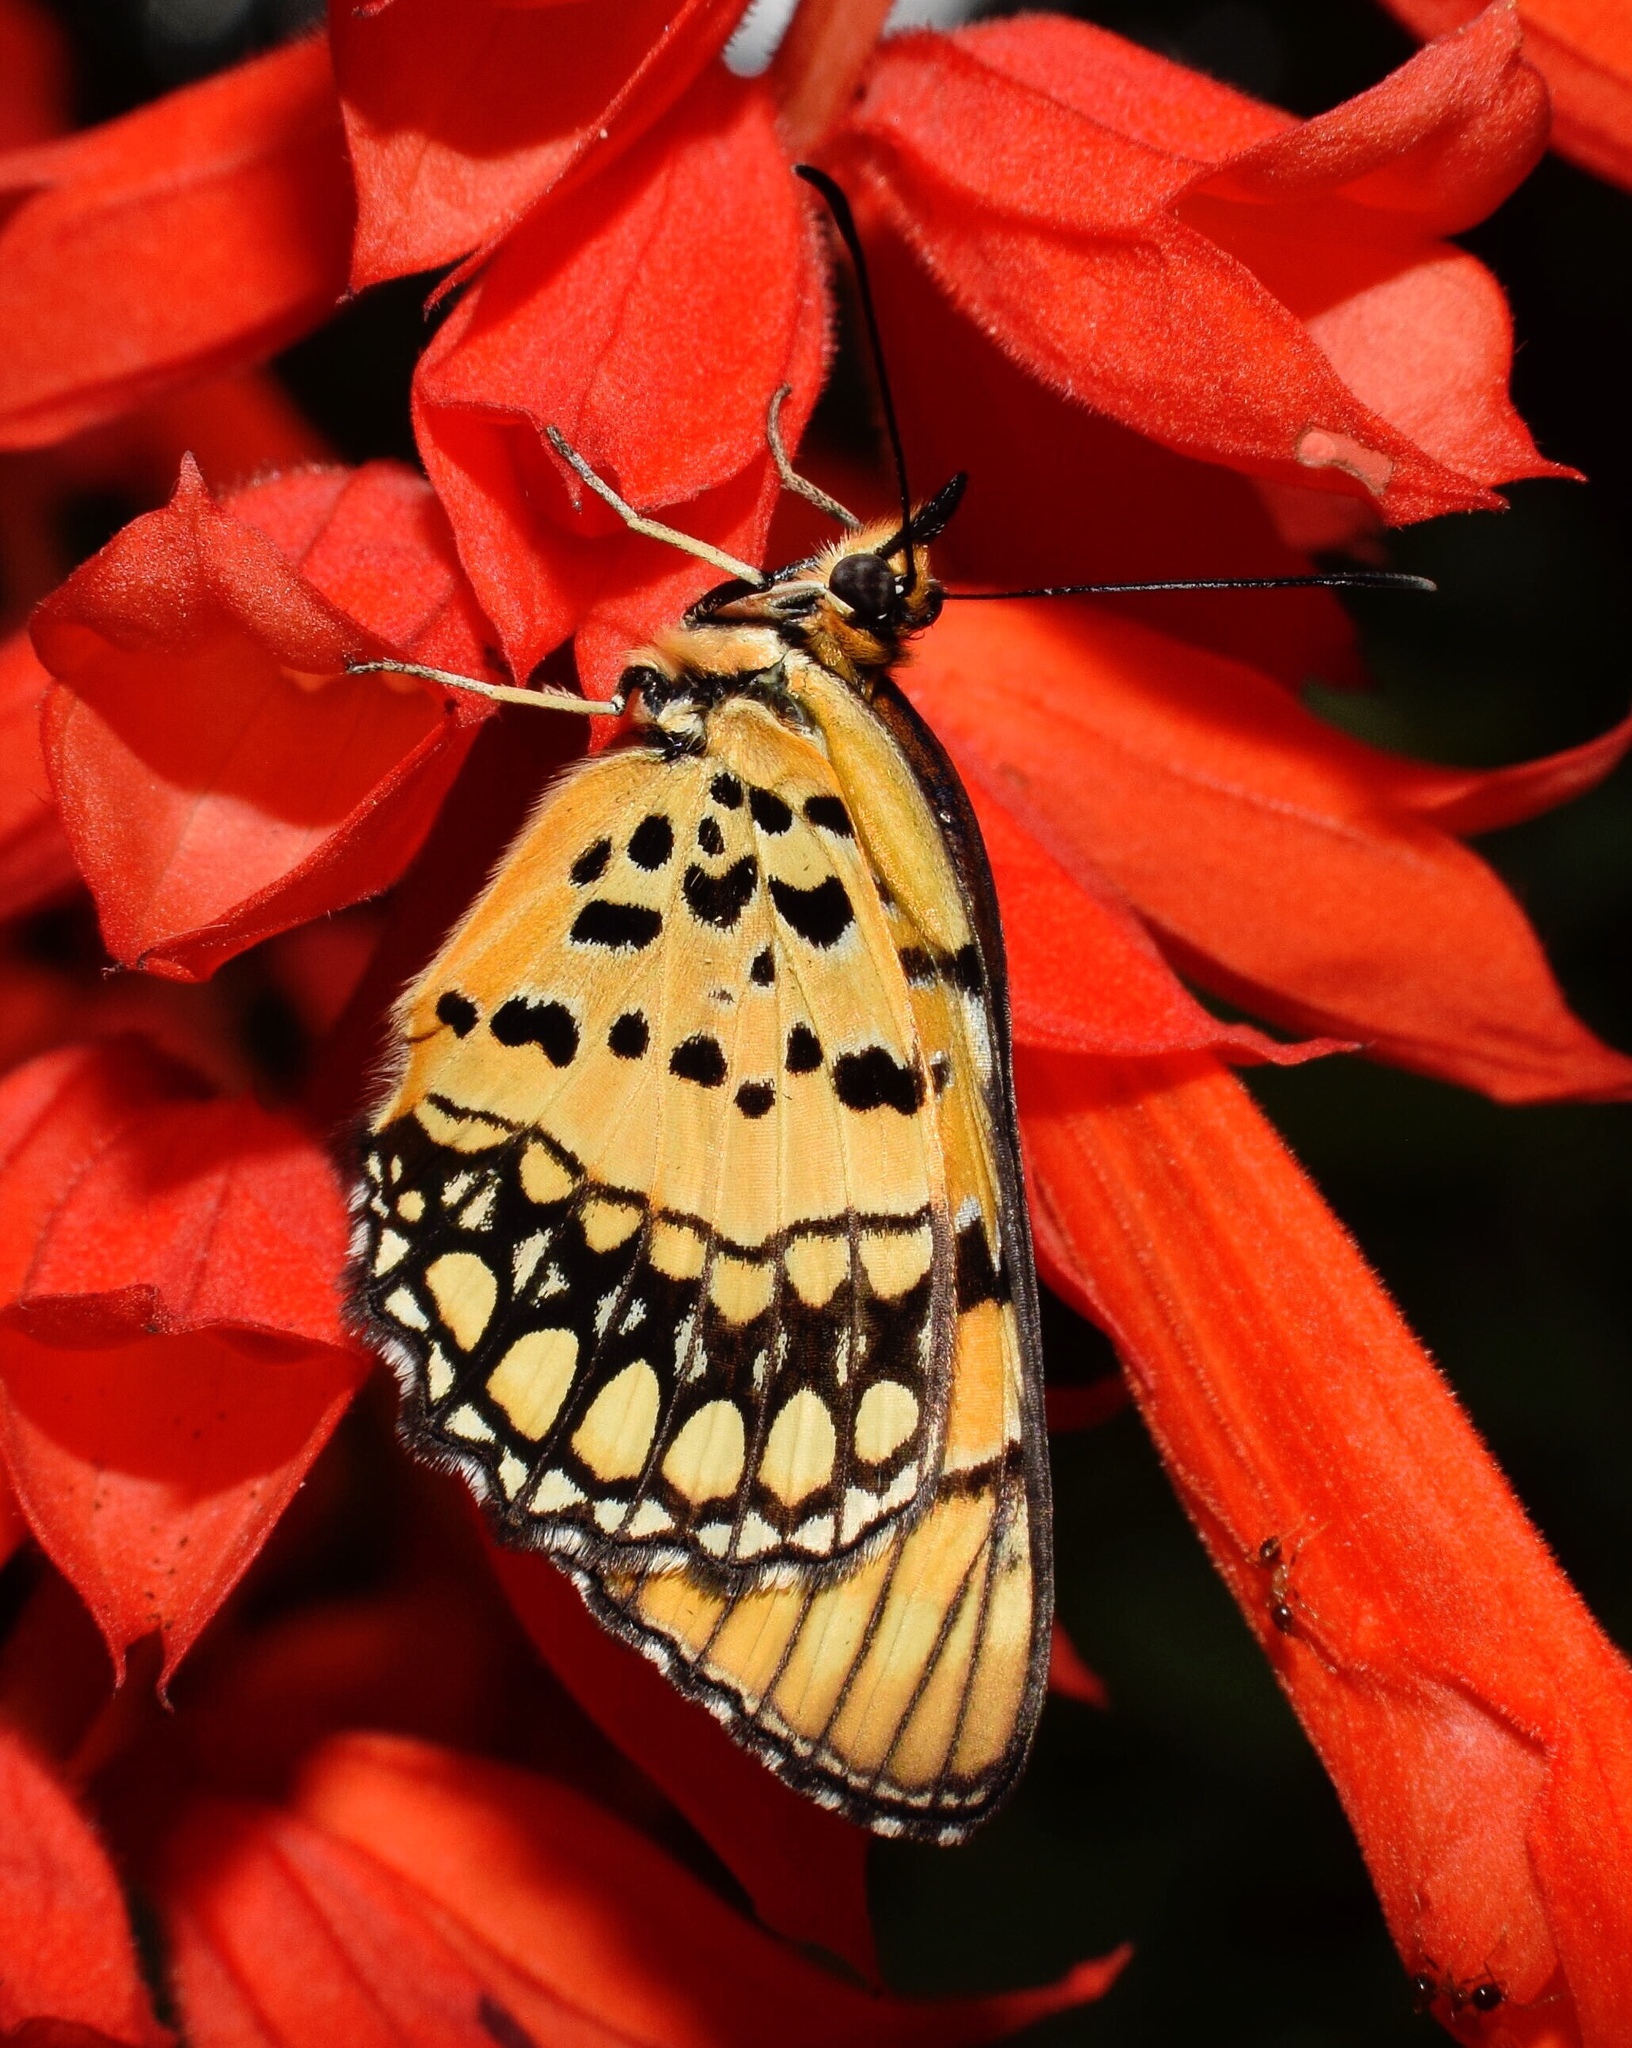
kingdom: Animalia
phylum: Arthropoda
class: Insecta
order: Lepidoptera
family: Nymphalidae
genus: Byblia
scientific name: Byblia acheloia
